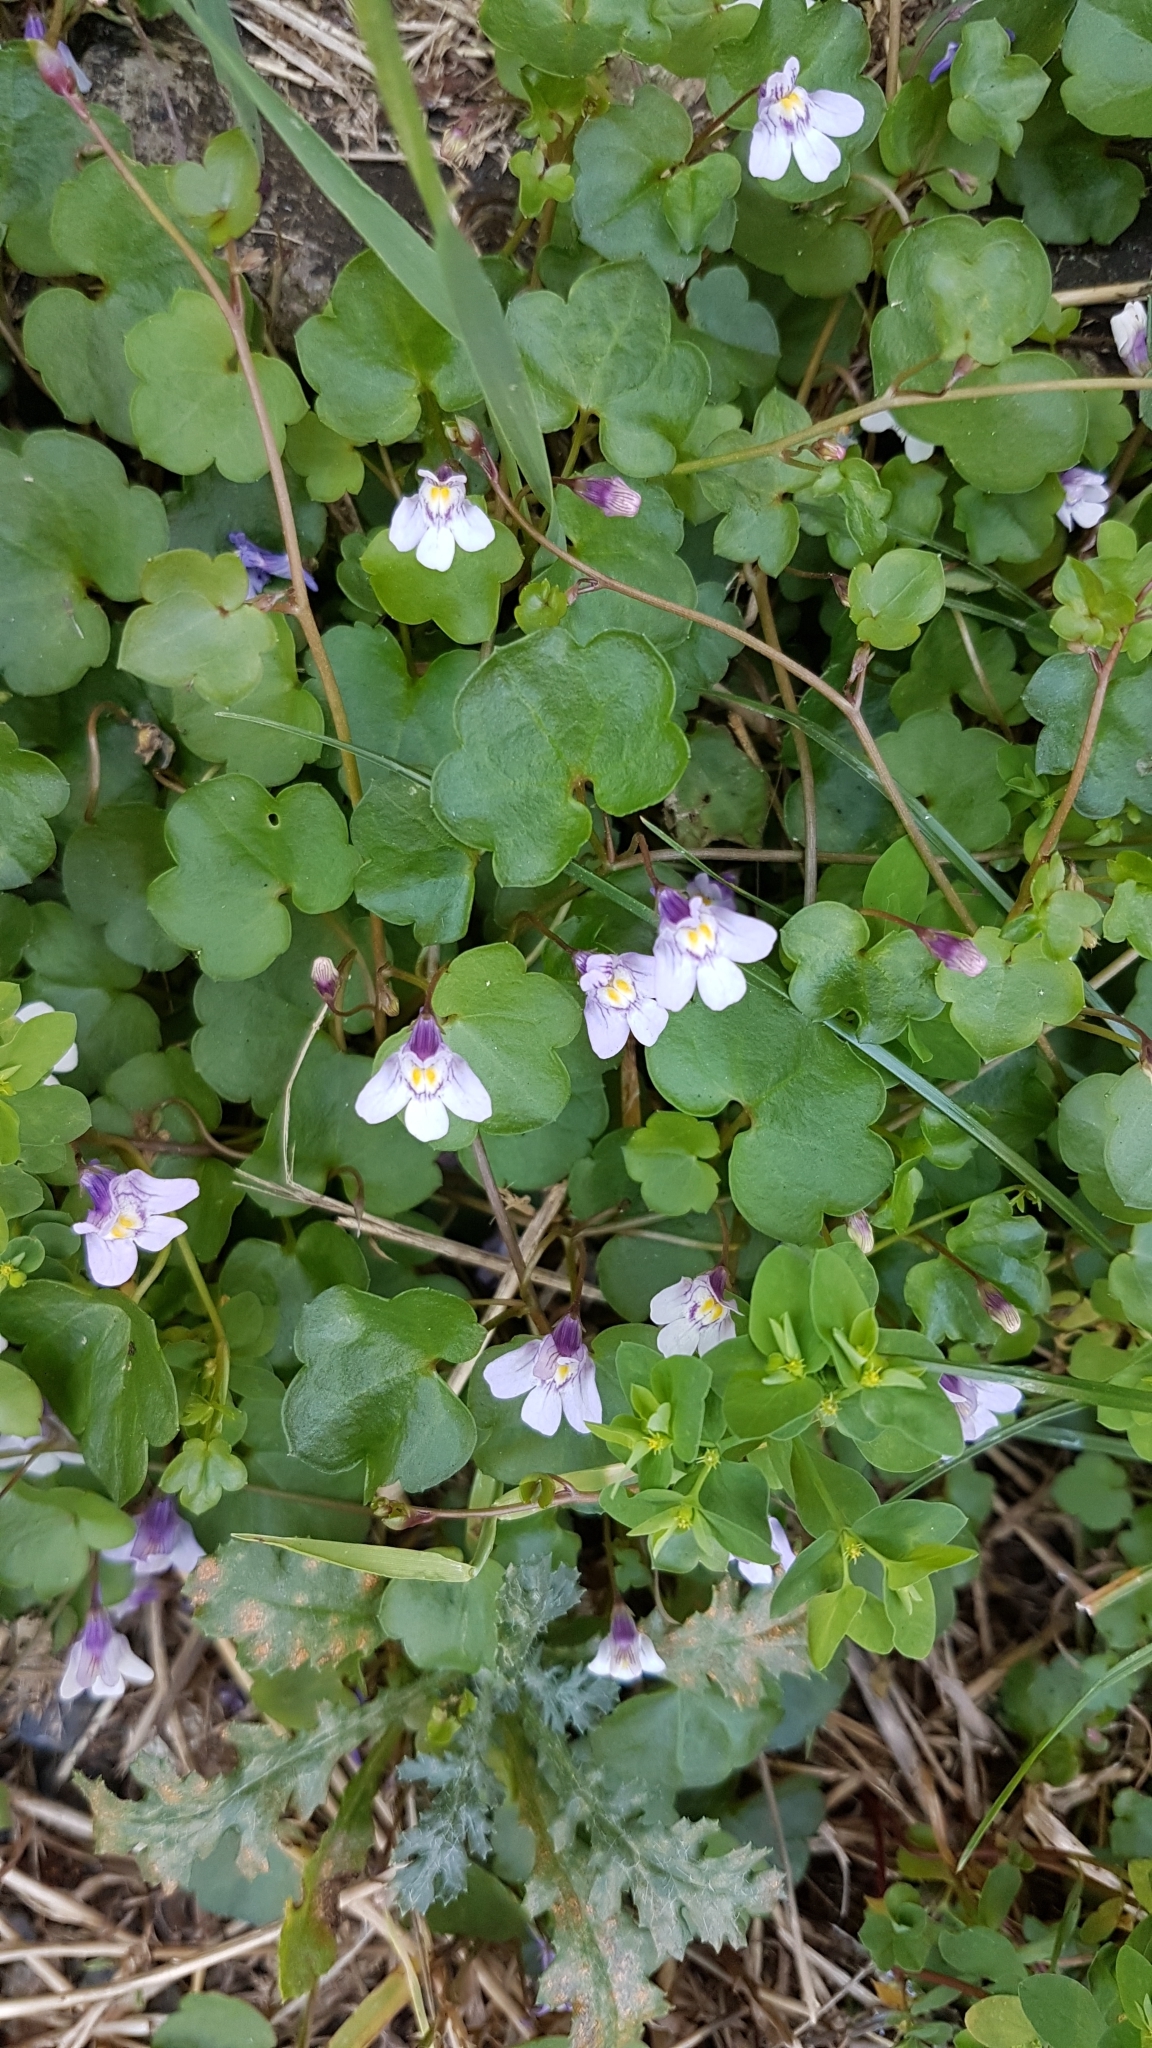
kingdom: Plantae
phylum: Tracheophyta
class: Magnoliopsida
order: Lamiales
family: Plantaginaceae
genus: Cymbalaria
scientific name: Cymbalaria muralis
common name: Ivy-leaved toadflax
